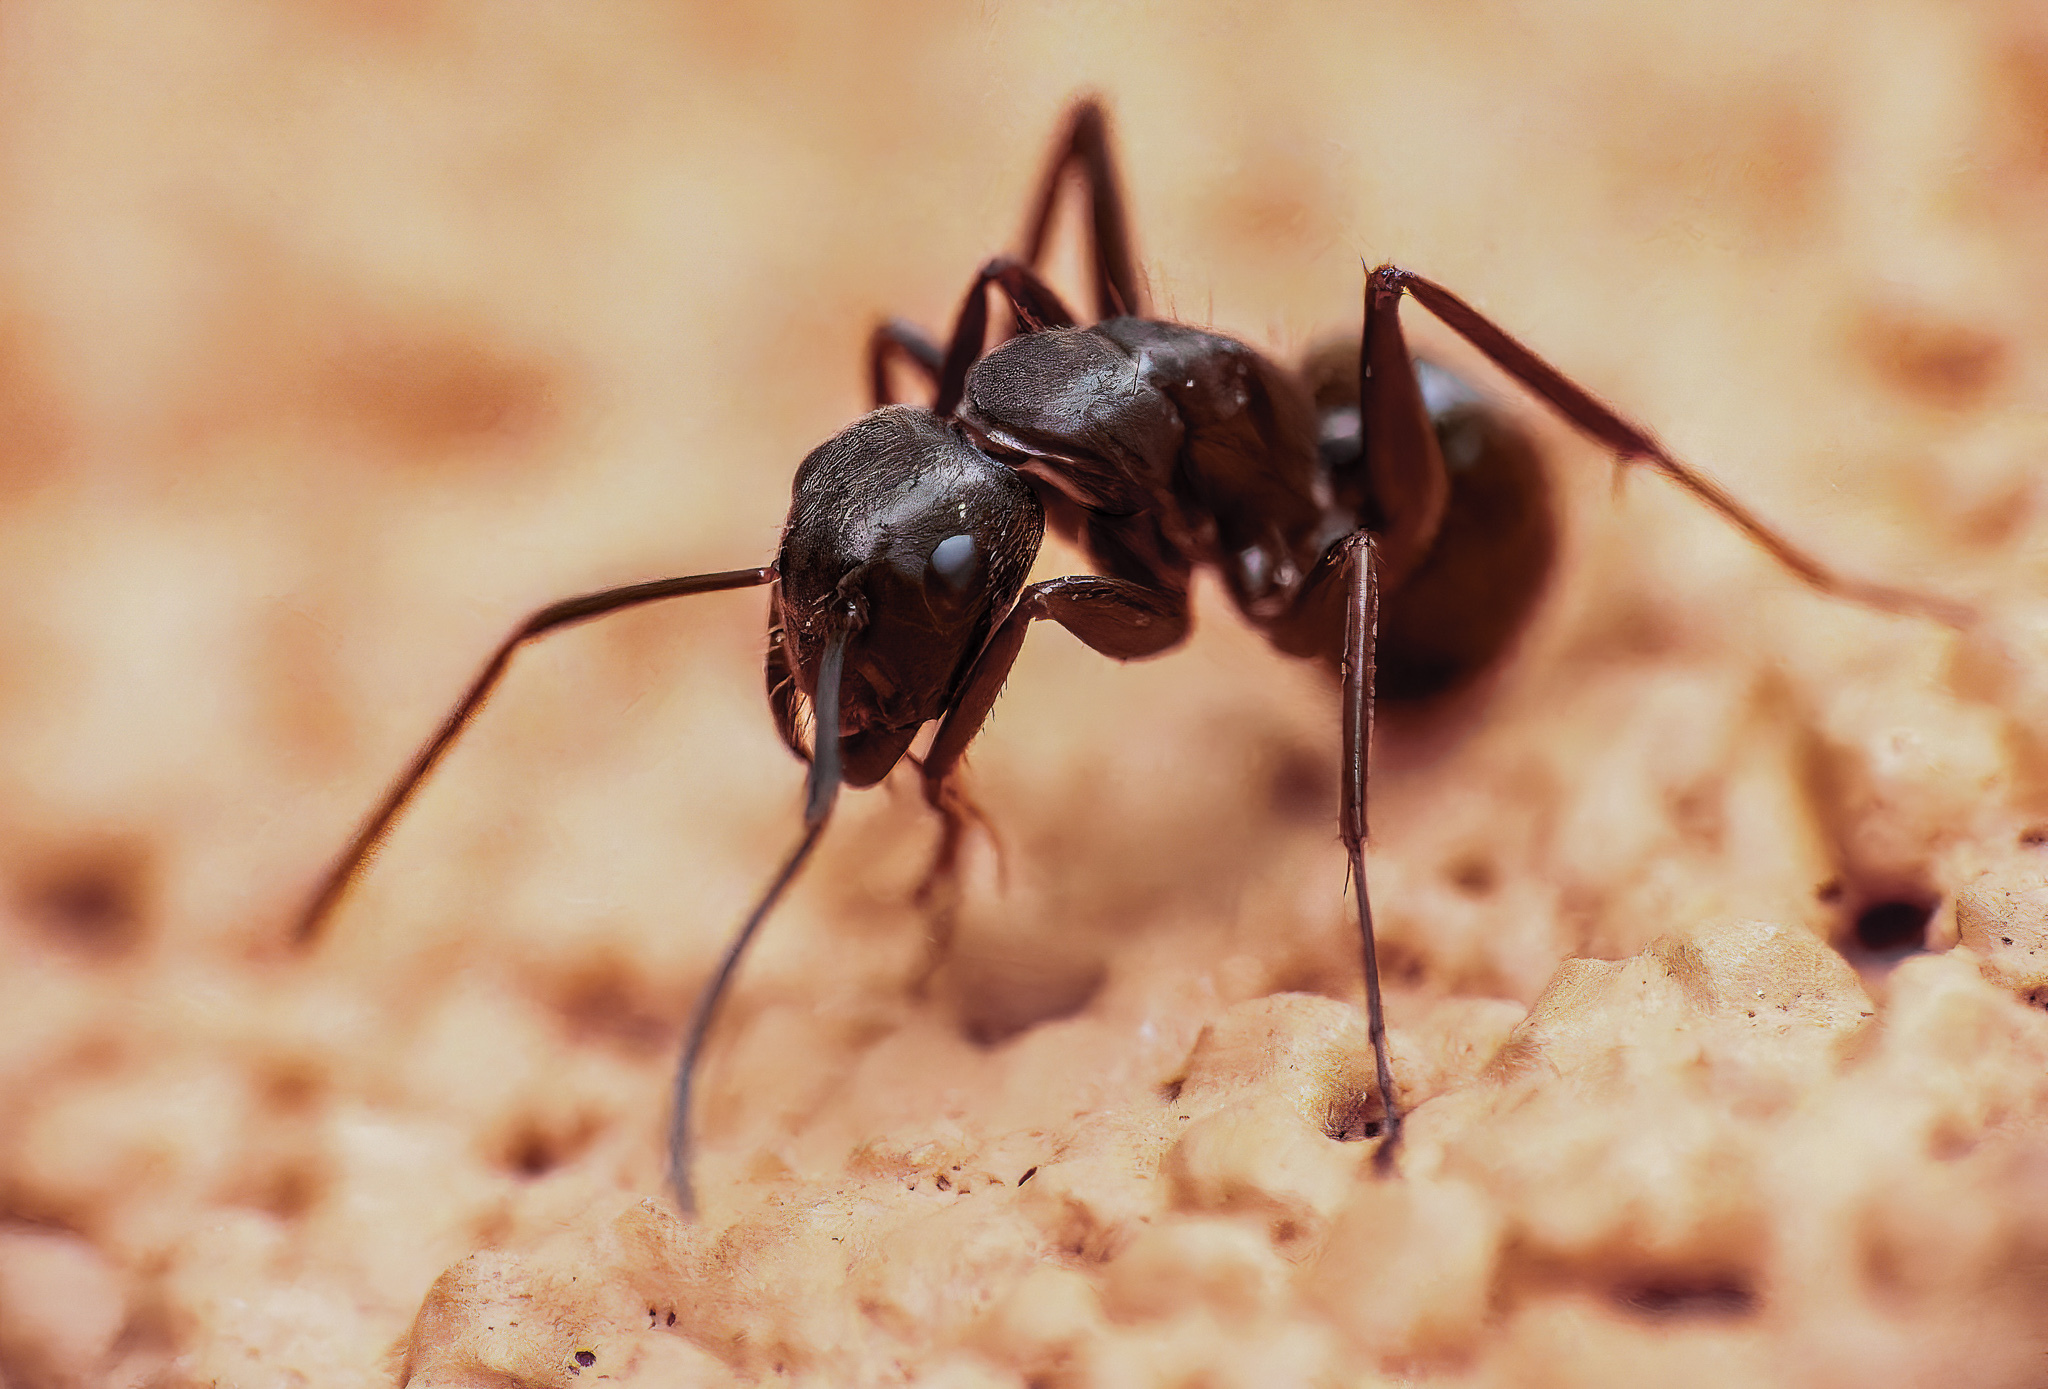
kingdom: Animalia
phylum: Arthropoda
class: Insecta
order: Hymenoptera
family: Formicidae
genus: Camponotus
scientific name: Camponotus pennsylvanicus
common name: Black carpenter ant
